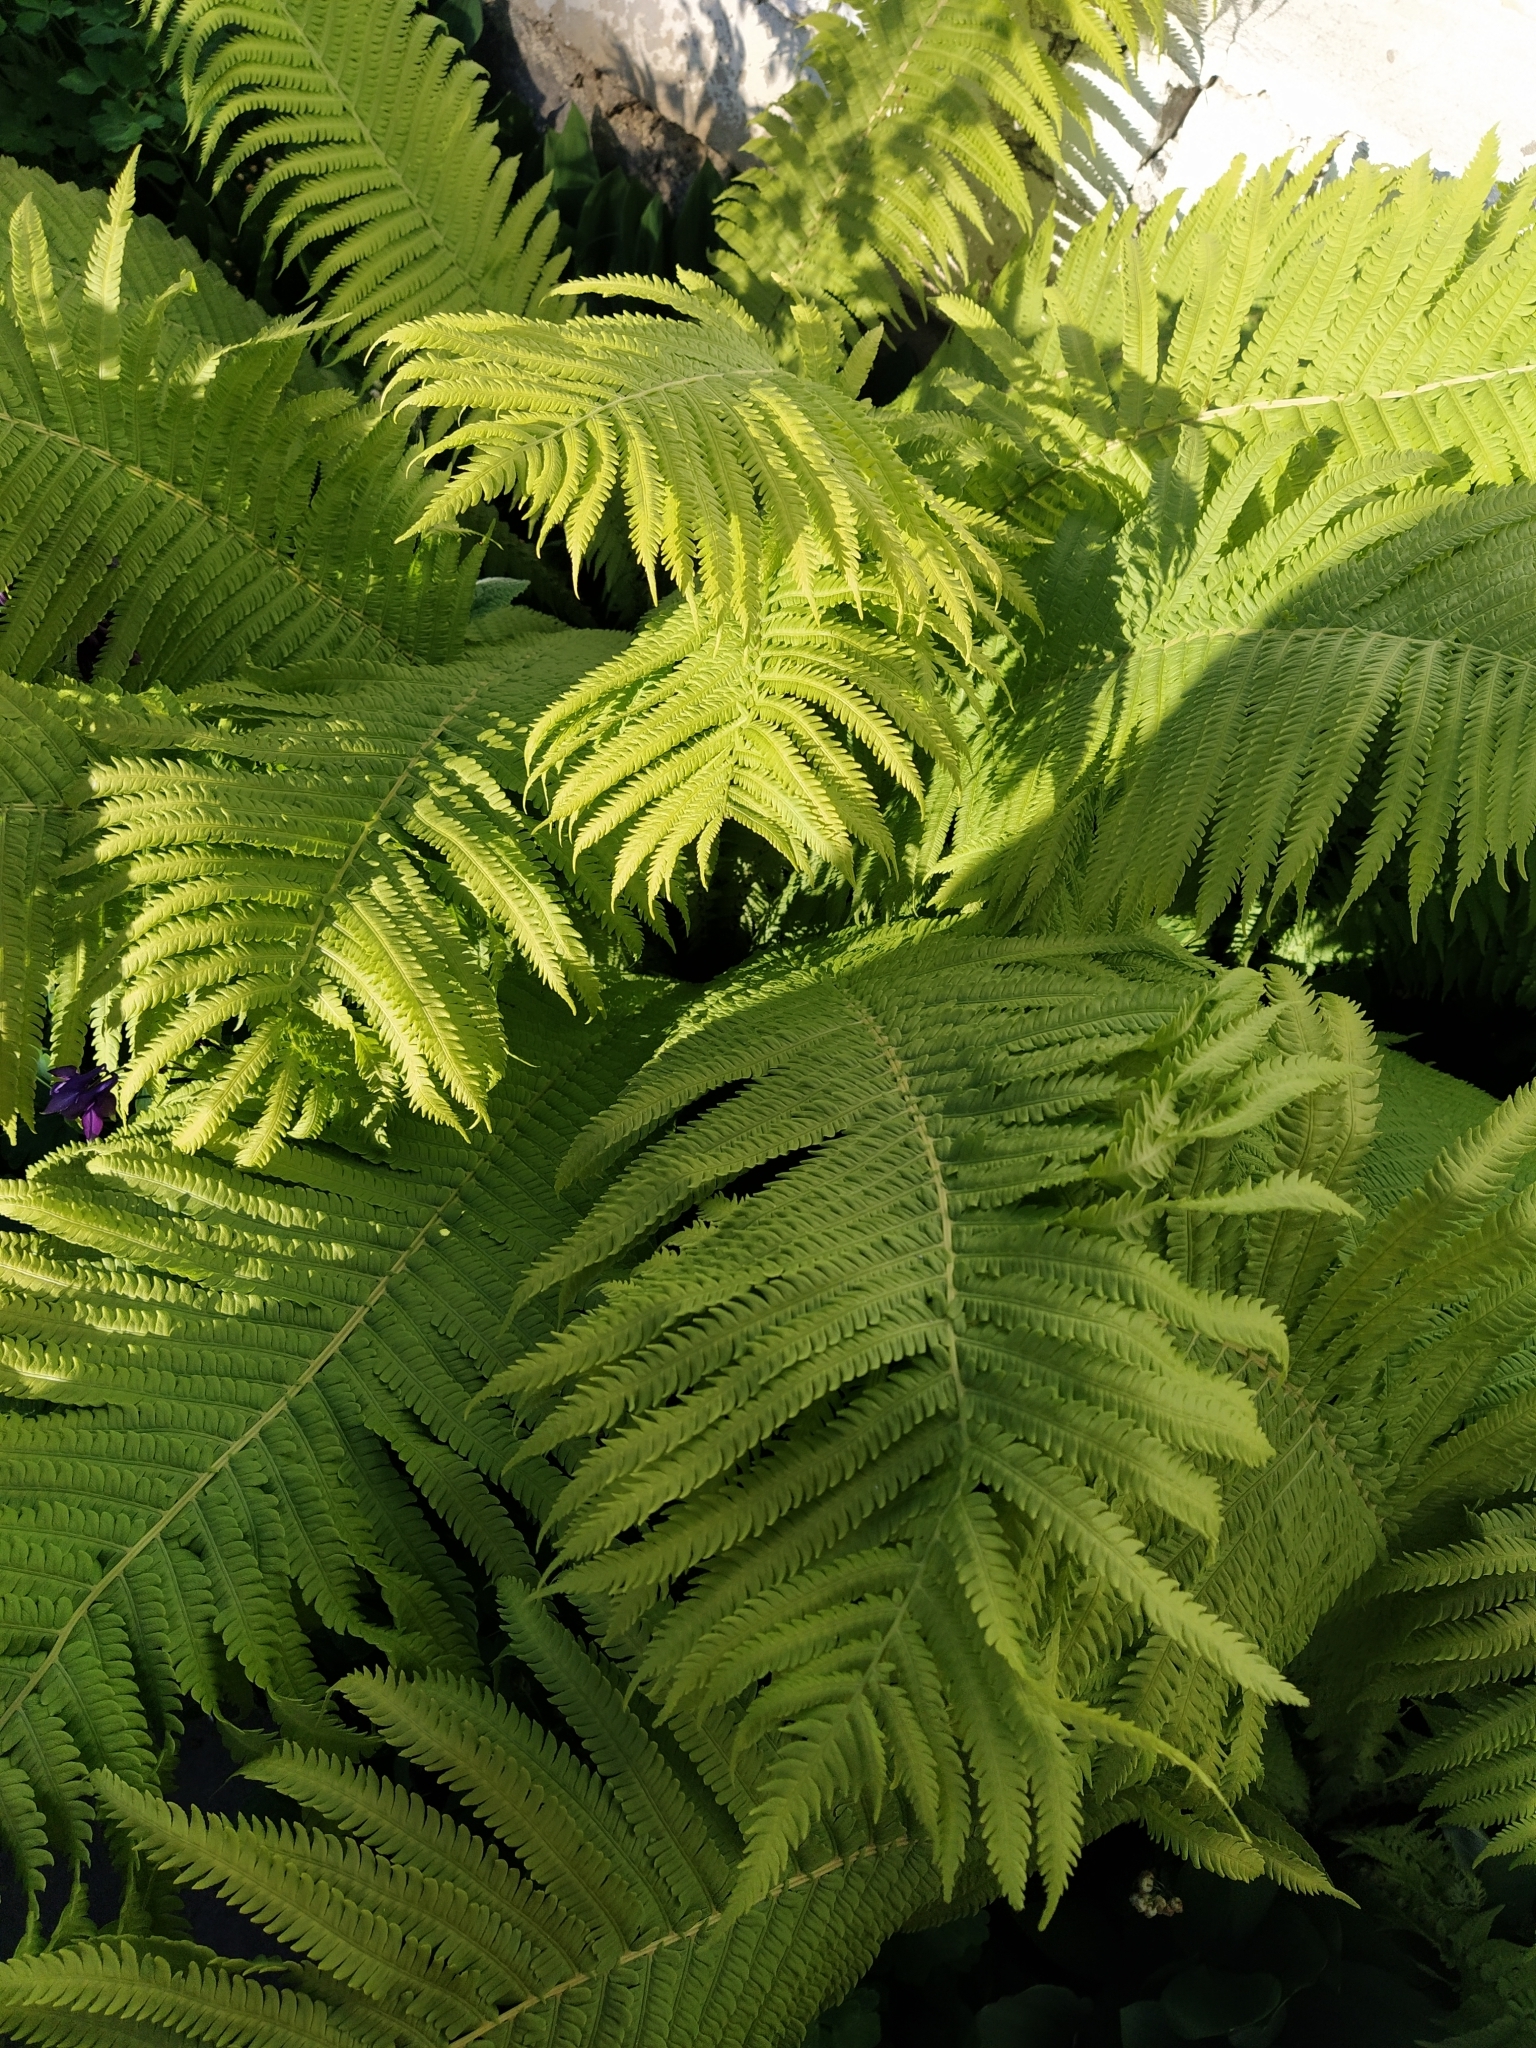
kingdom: Plantae
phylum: Tracheophyta
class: Polypodiopsida
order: Polypodiales
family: Onocleaceae
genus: Matteuccia
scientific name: Matteuccia struthiopteris
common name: Ostrich fern
